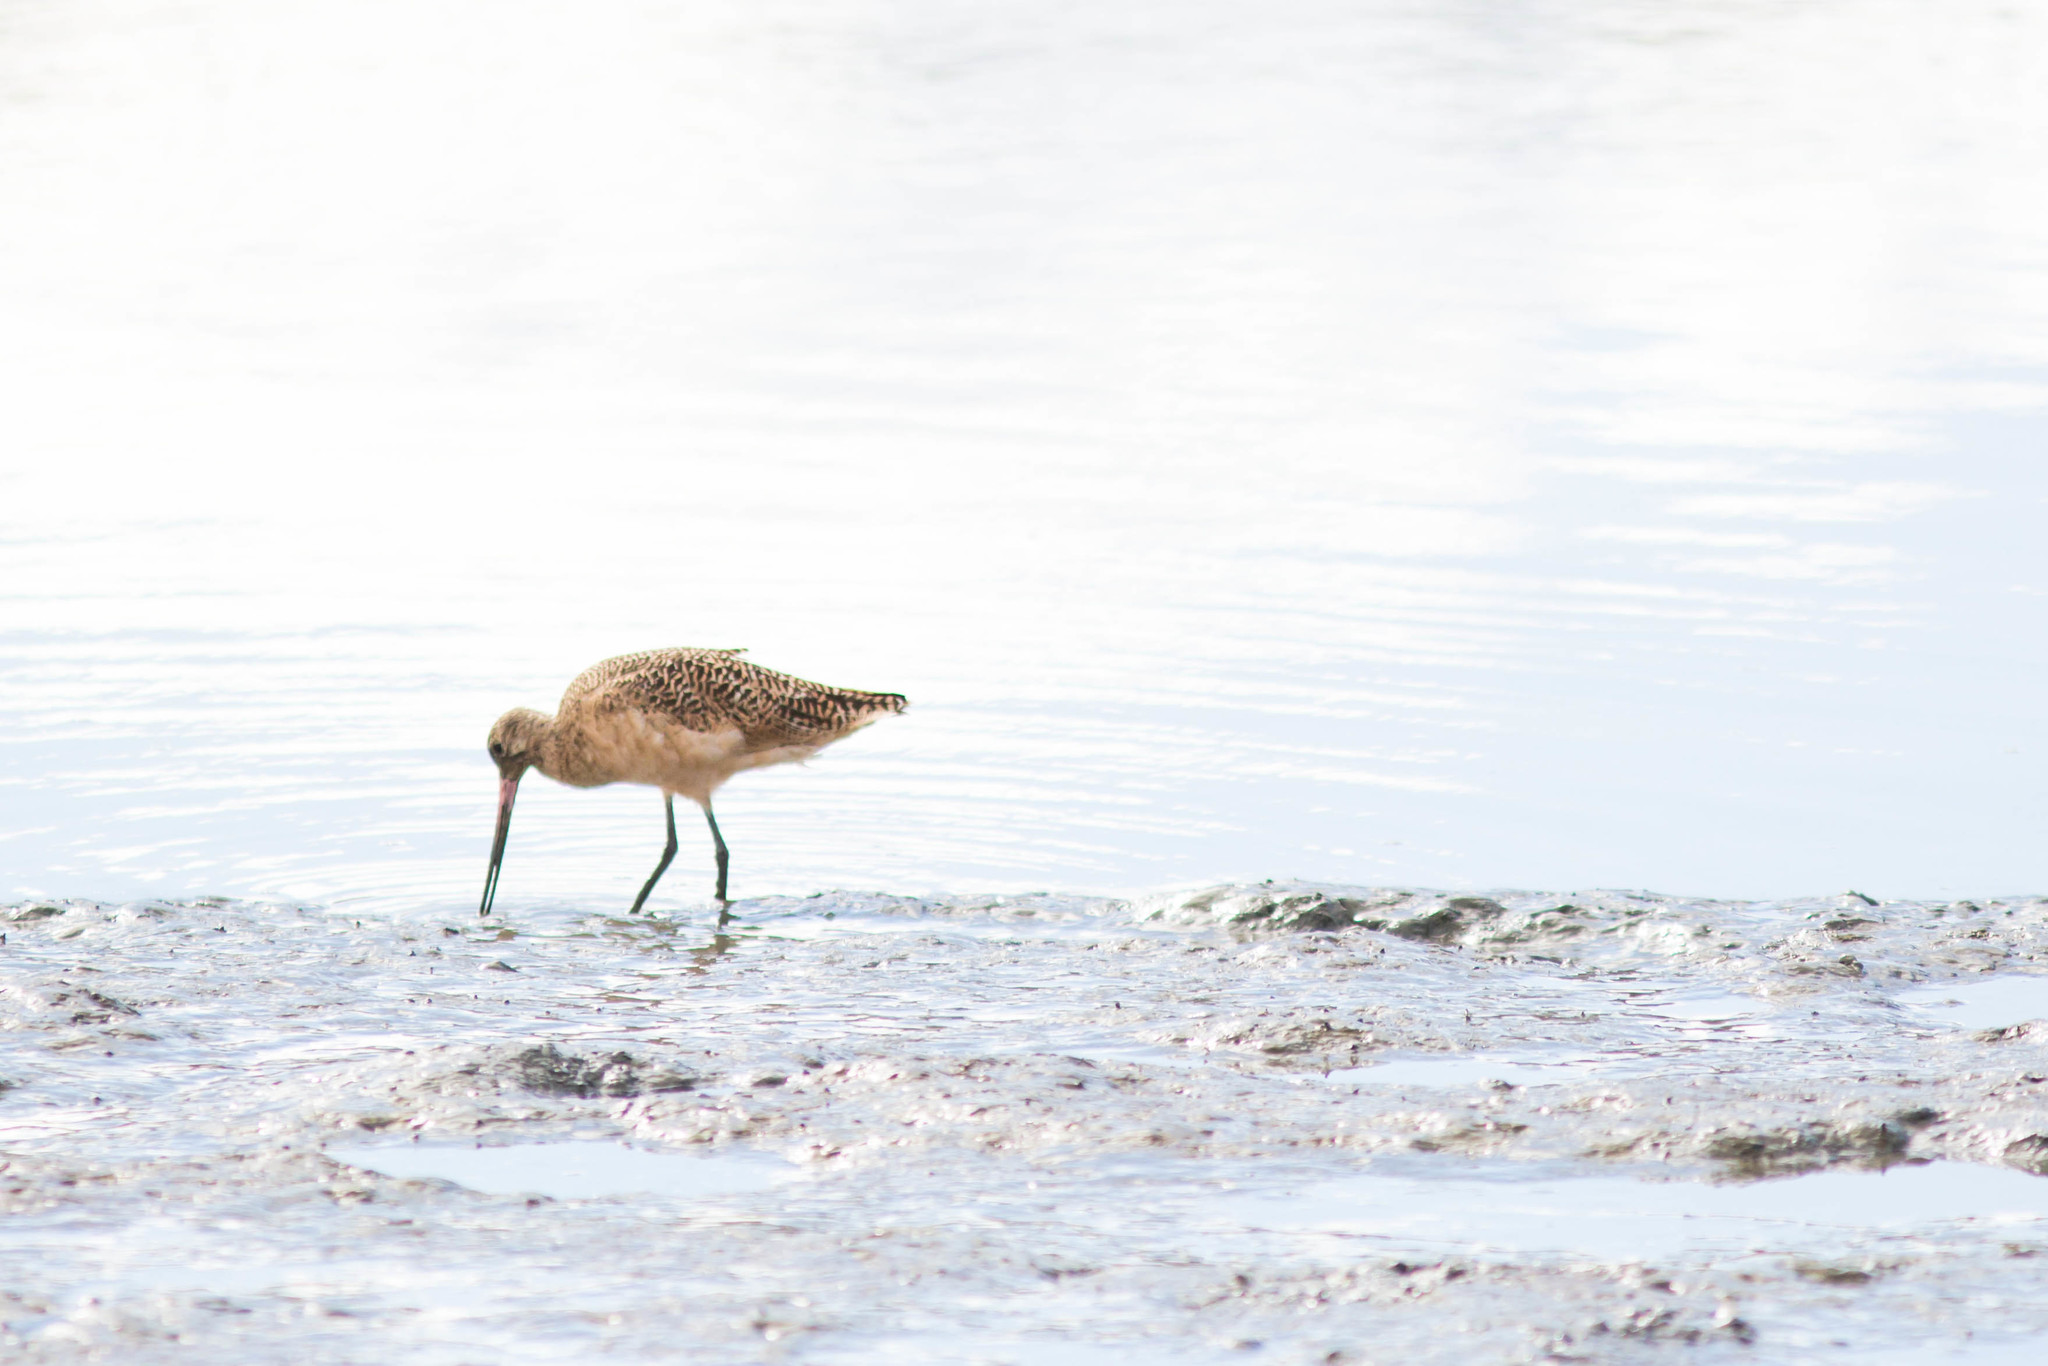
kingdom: Animalia
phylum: Chordata
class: Aves
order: Charadriiformes
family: Scolopacidae
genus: Limosa
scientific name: Limosa fedoa
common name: Marbled godwit
